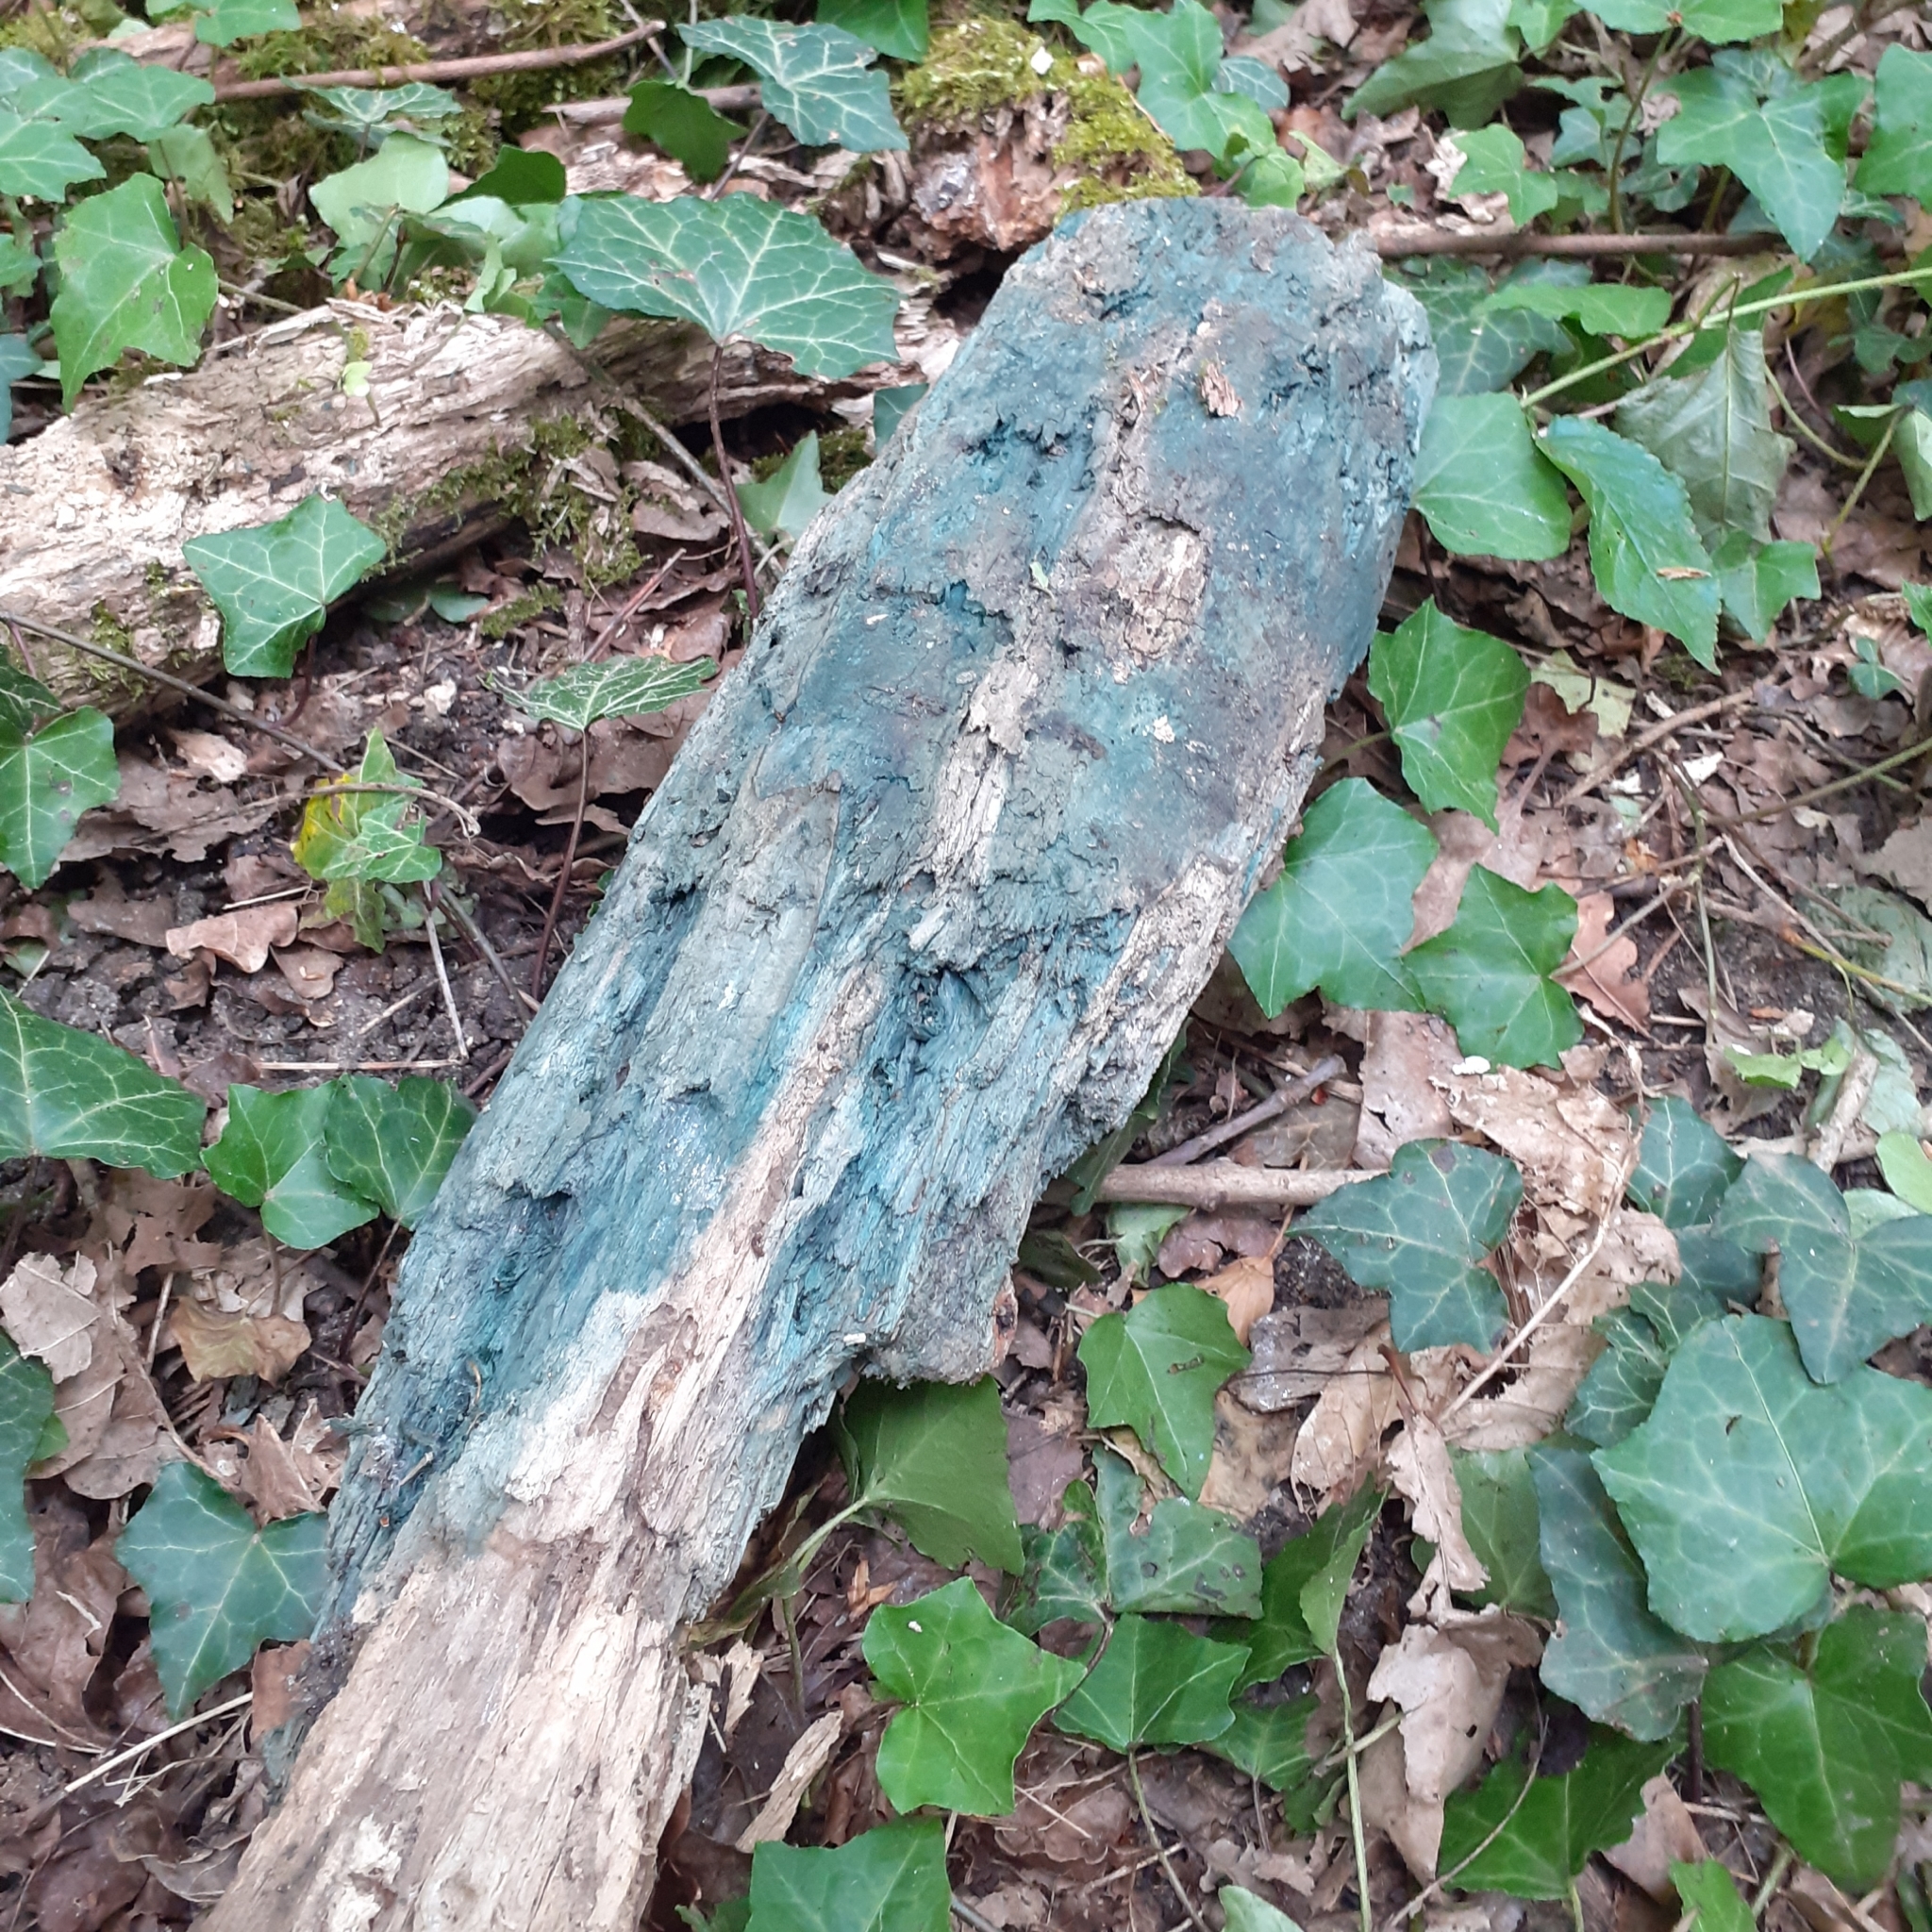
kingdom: Fungi
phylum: Ascomycota
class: Leotiomycetes
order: Helotiales
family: Chlorociboriaceae
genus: Chlorociboria
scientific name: Chlorociboria
